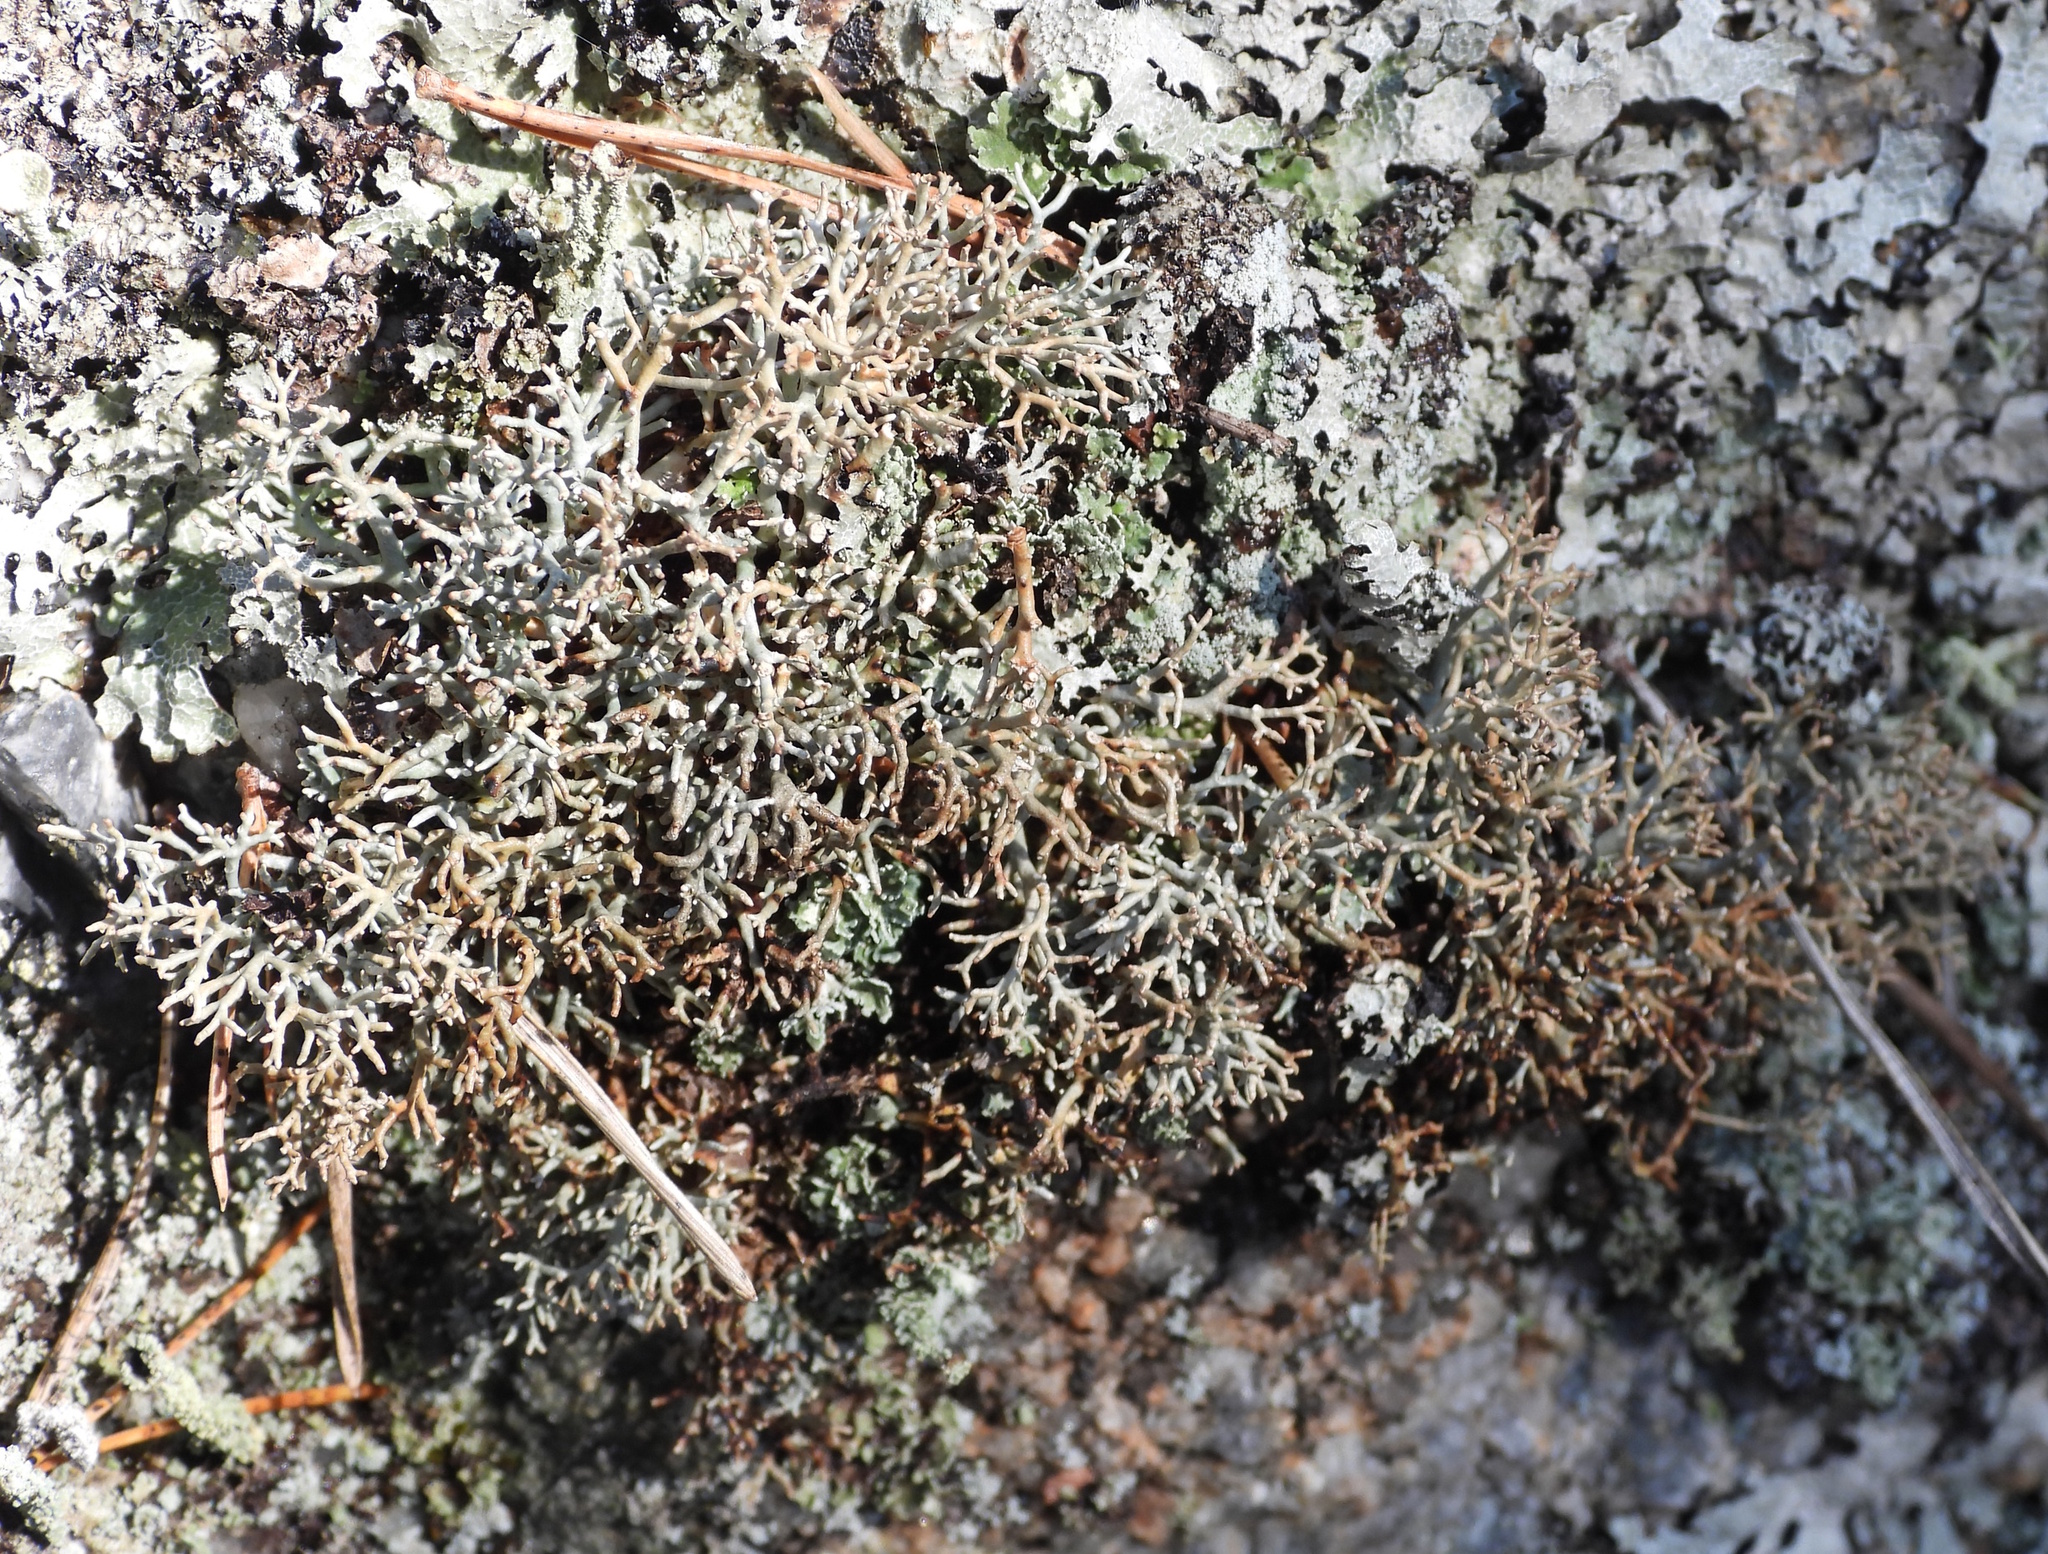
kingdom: Fungi
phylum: Ascomycota
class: Lecanoromycetes
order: Lecanorales
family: Sphaerophoraceae
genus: Sphaerophorus
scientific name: Sphaerophorus fragilis
